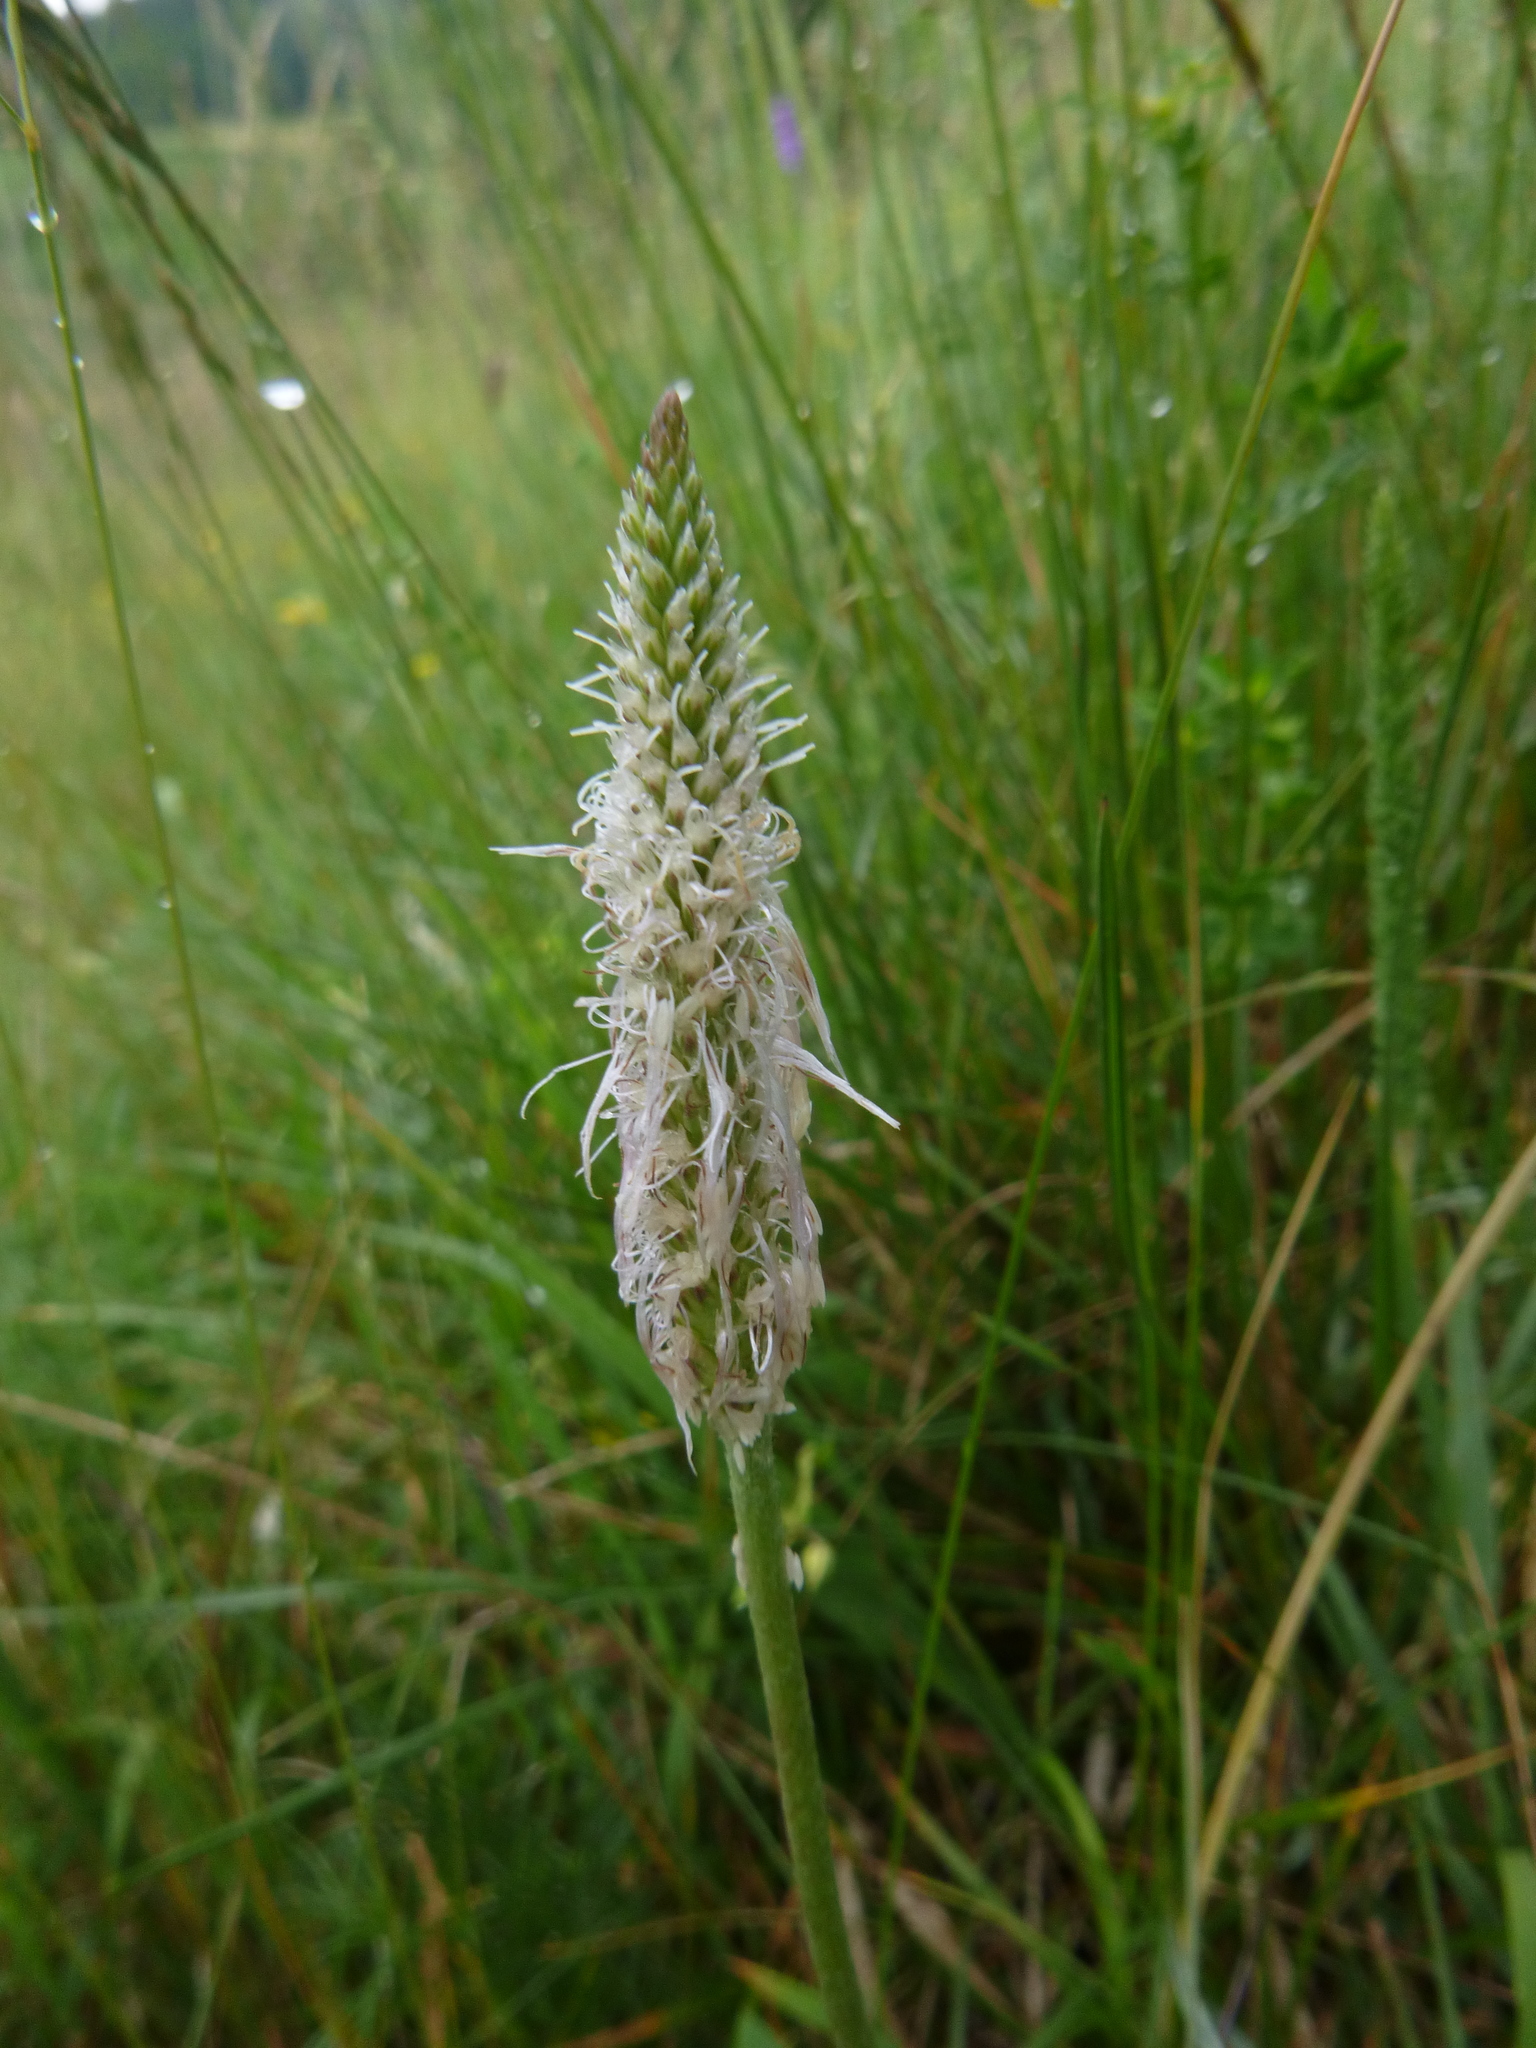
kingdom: Plantae
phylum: Tracheophyta
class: Magnoliopsida
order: Lamiales
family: Plantaginaceae
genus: Plantago
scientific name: Plantago media
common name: Hoary plantain
